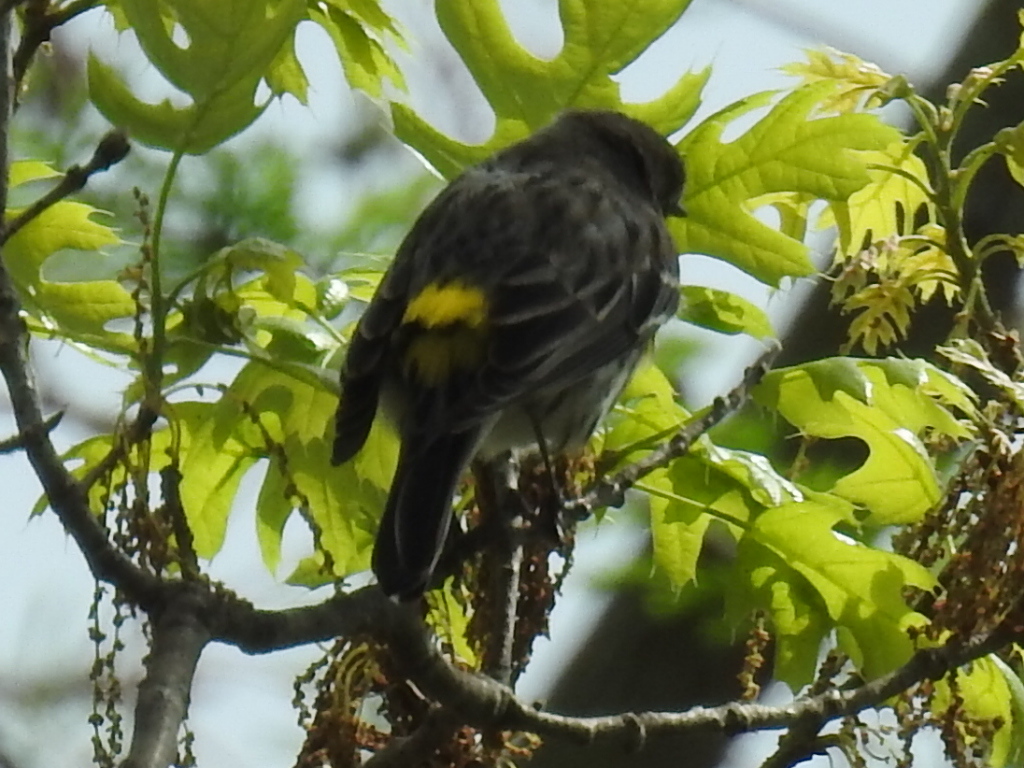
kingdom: Animalia
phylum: Chordata
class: Aves
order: Passeriformes
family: Parulidae
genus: Setophaga
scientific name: Setophaga coronata
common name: Myrtle warbler
